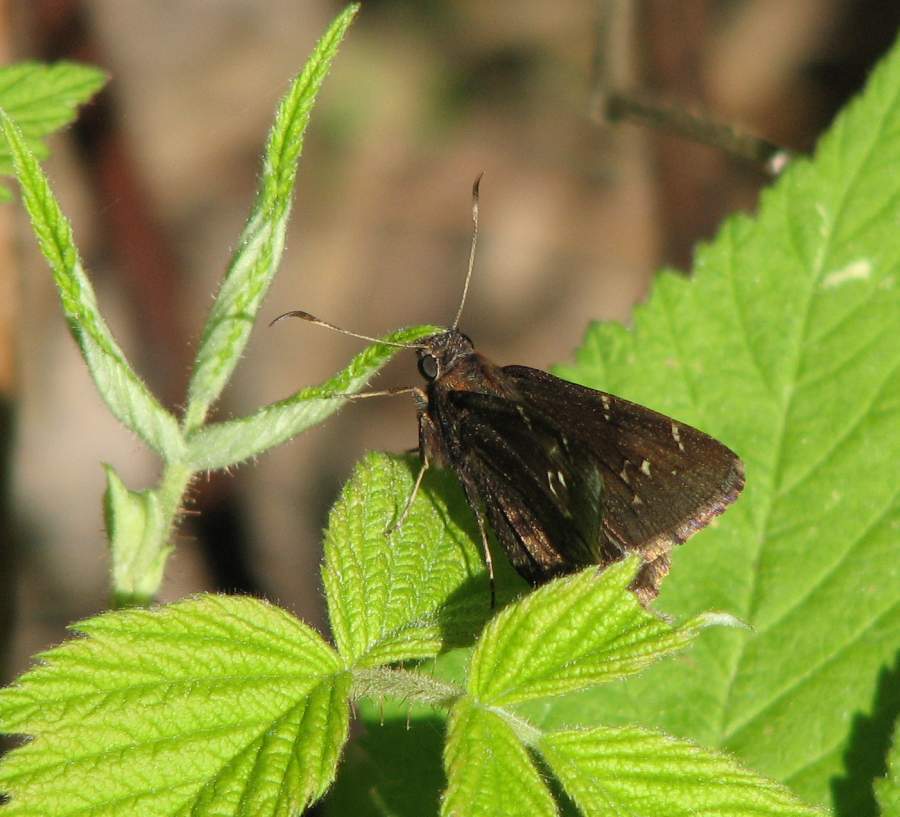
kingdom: Animalia
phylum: Arthropoda
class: Insecta
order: Lepidoptera
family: Hesperiidae
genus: Thorybes
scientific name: Thorybes pylades
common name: Northern cloudywing
